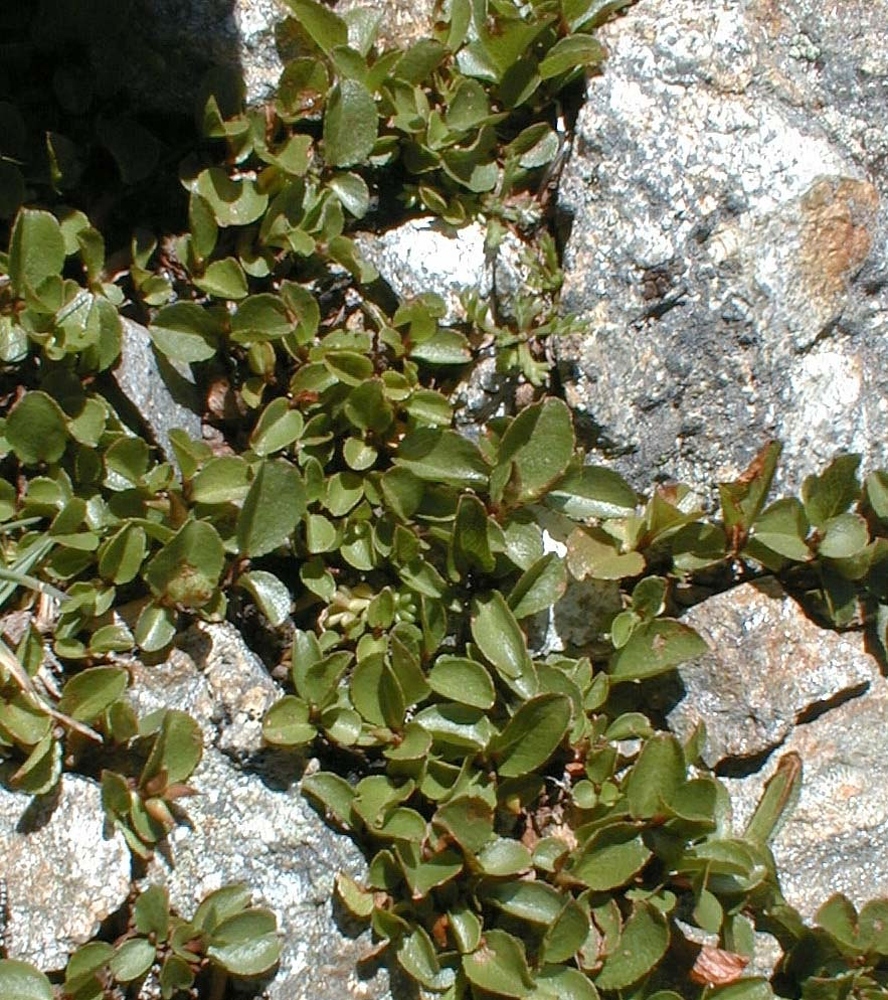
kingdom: Plantae
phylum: Tracheophyta
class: Magnoliopsida
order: Malpighiales
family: Salicaceae
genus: Salix
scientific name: Salix herbacea
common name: Dwarf willow
